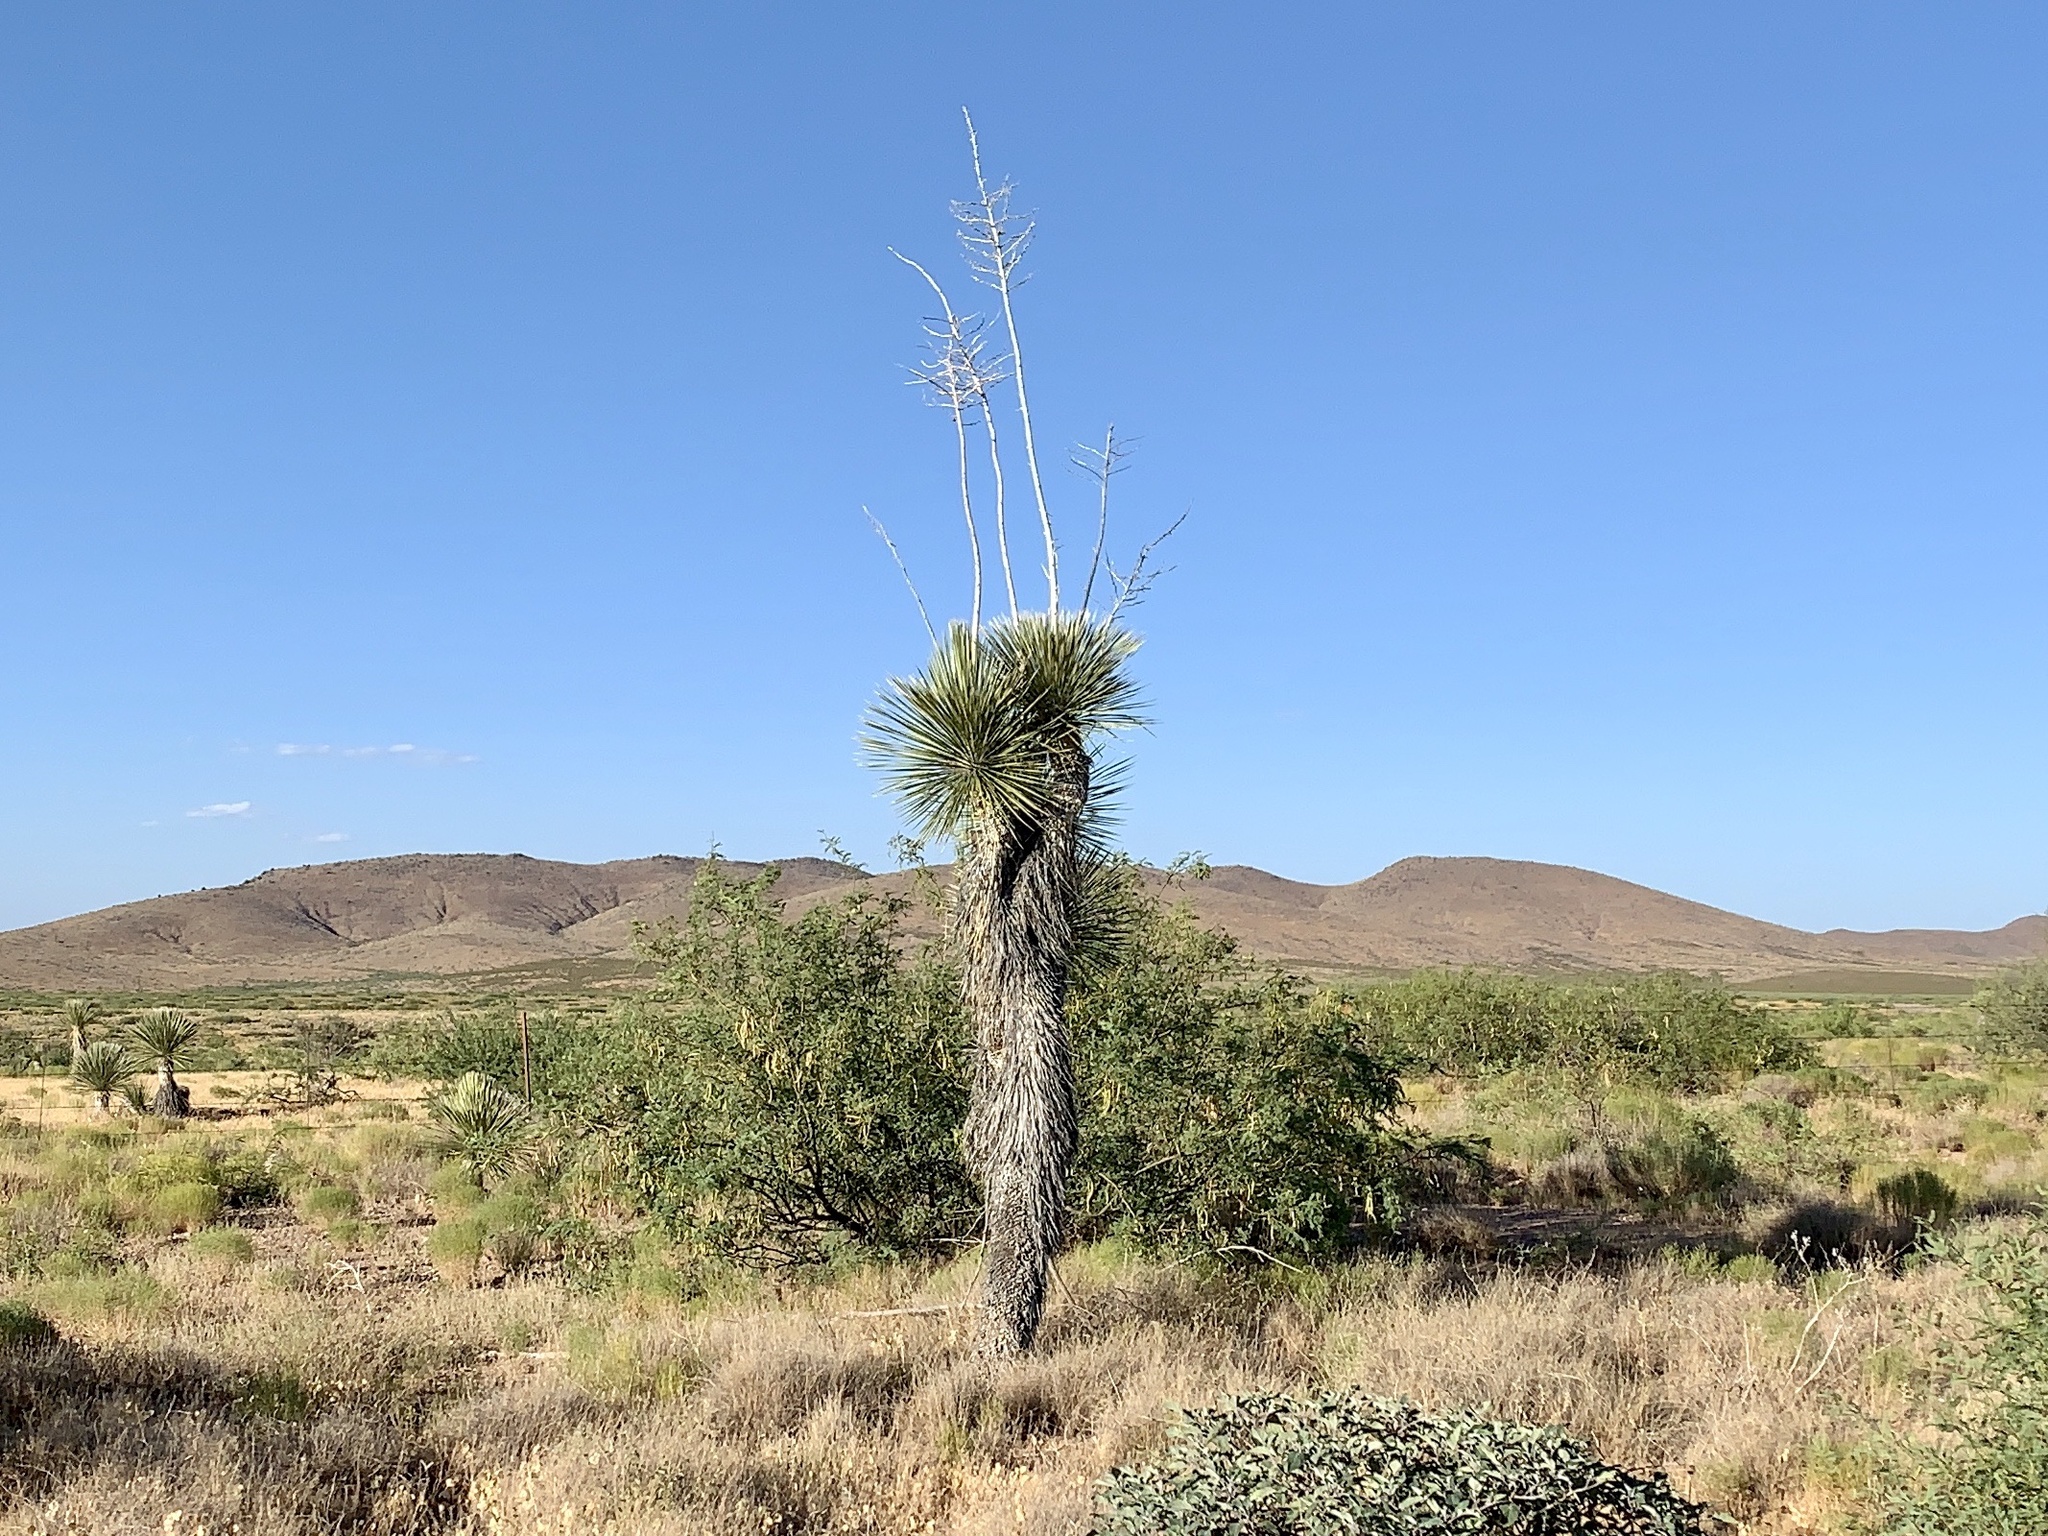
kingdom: Plantae
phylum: Tracheophyta
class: Liliopsida
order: Asparagales
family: Asparagaceae
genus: Yucca
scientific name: Yucca elata
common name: Palmella
